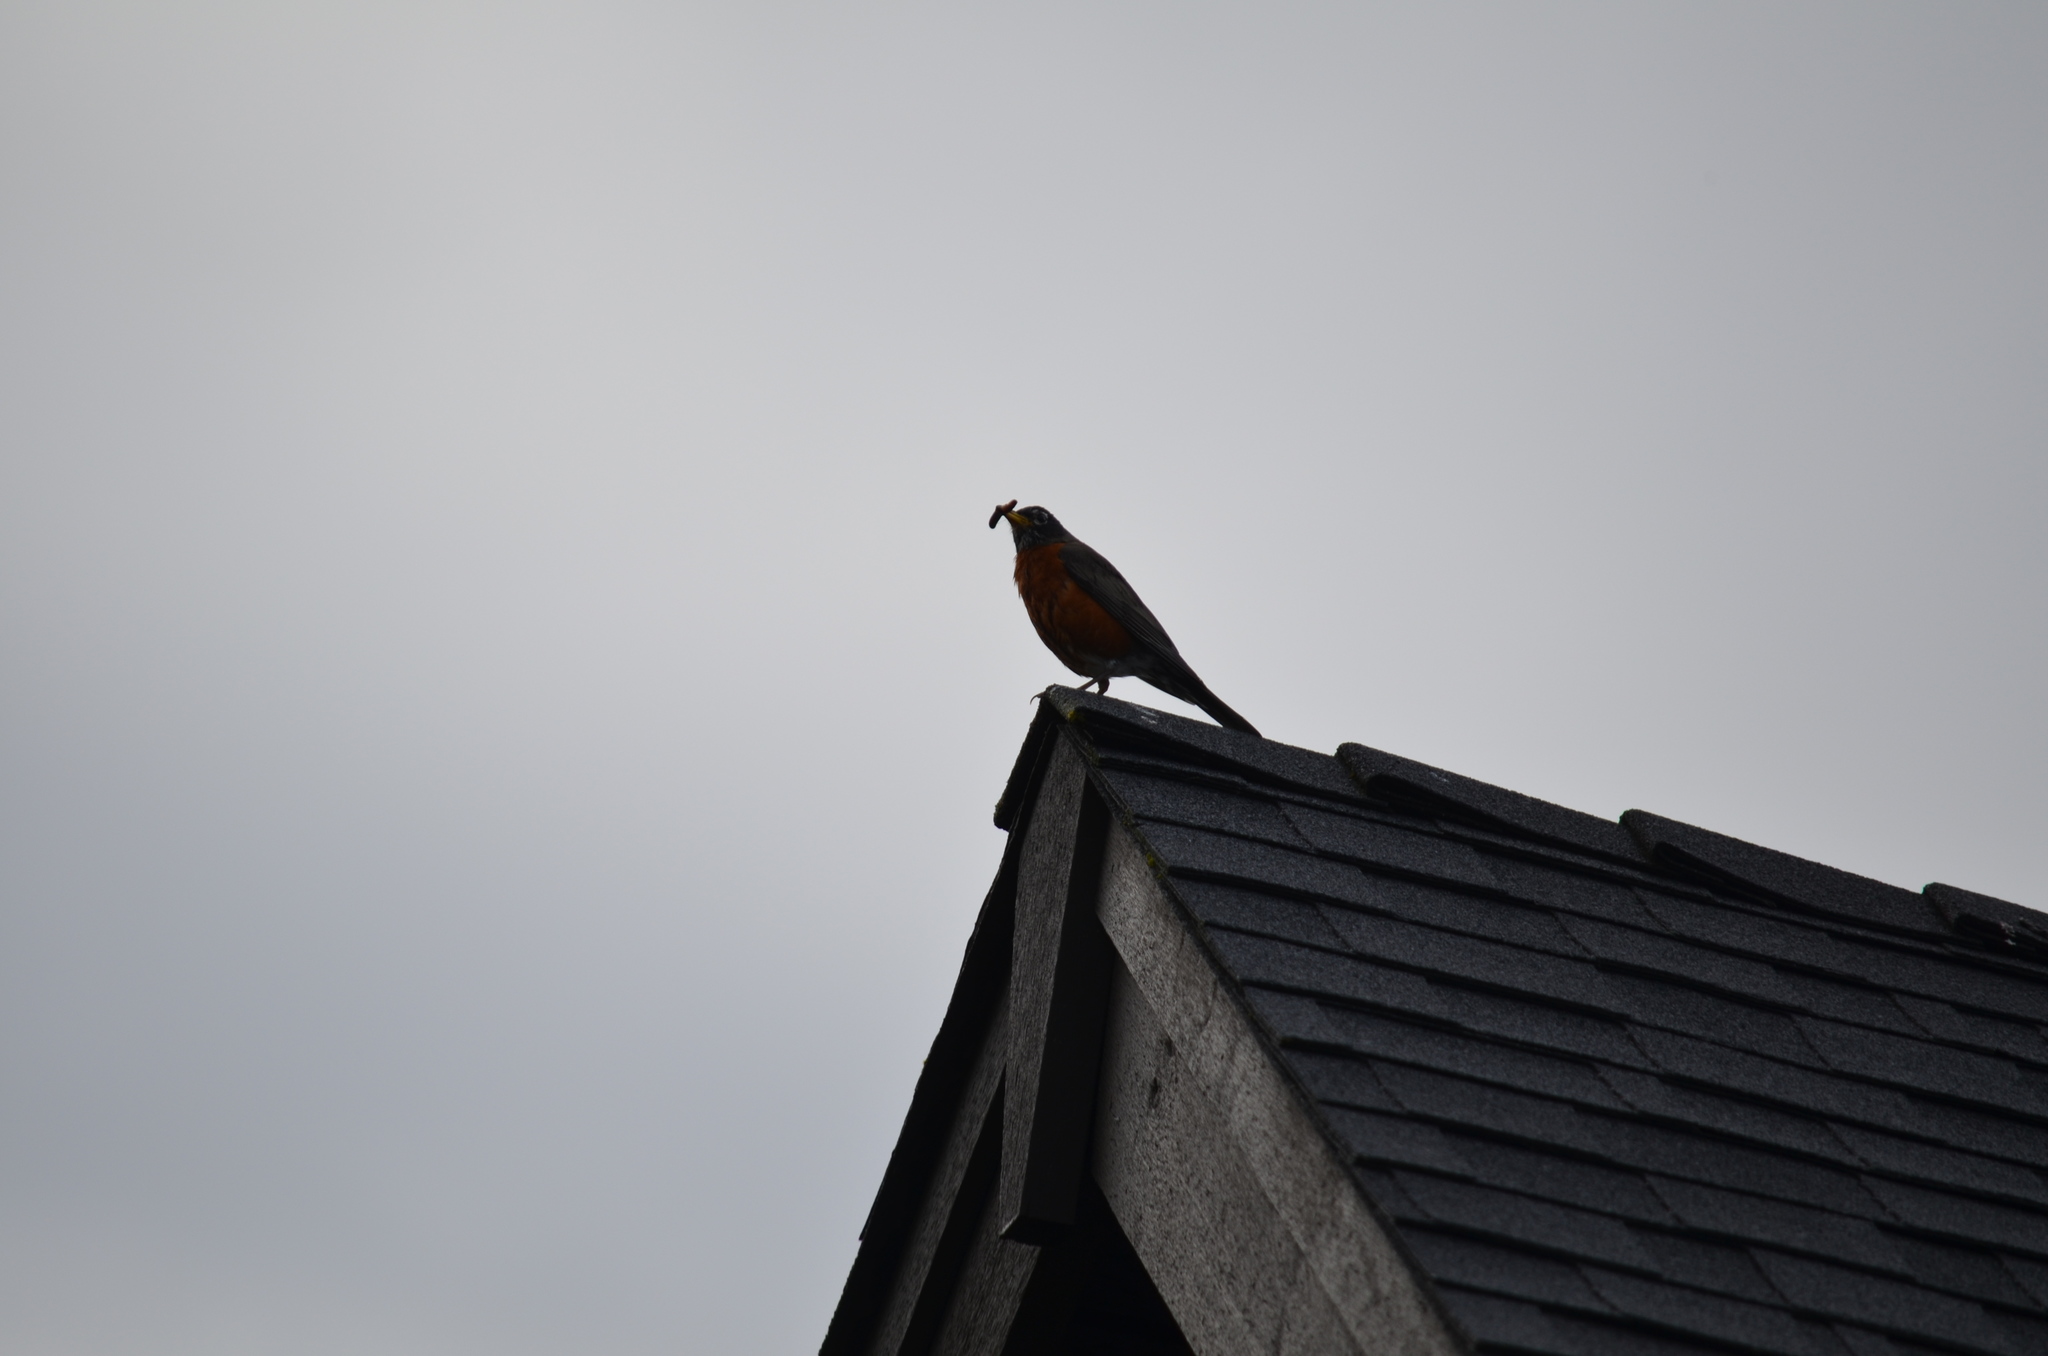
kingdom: Animalia
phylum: Chordata
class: Aves
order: Passeriformes
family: Turdidae
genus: Turdus
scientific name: Turdus migratorius
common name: American robin
